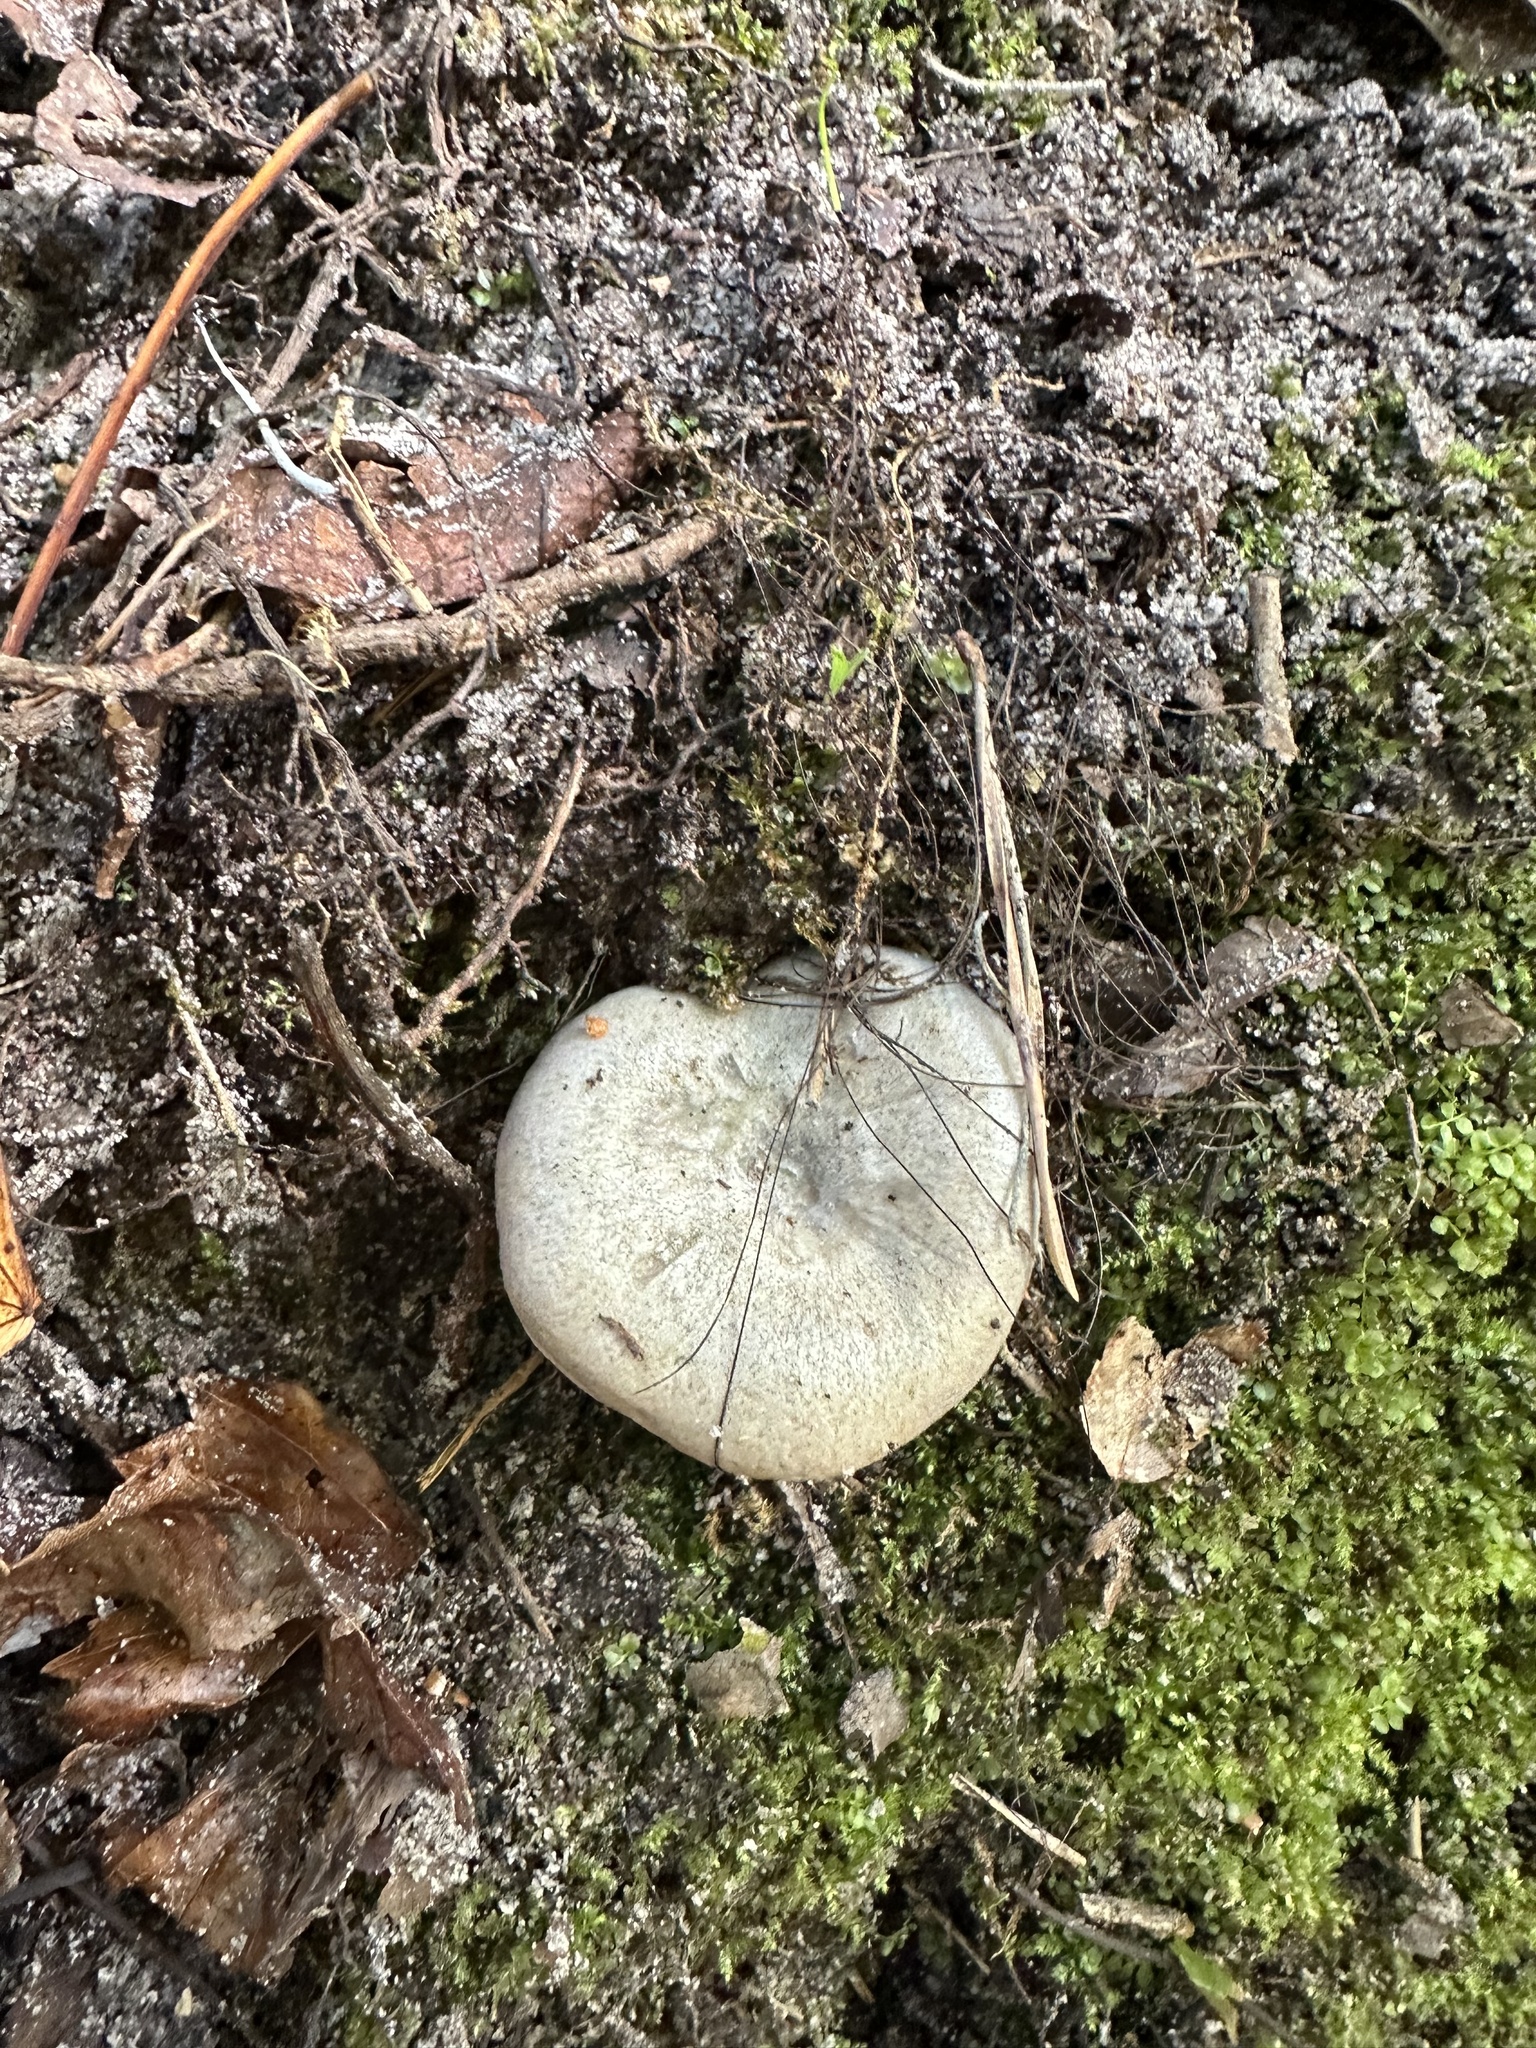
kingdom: Fungi
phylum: Basidiomycota
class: Agaricomycetes
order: Russulales
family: Russulaceae
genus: Lactarius
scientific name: Lactarius paradoxus
